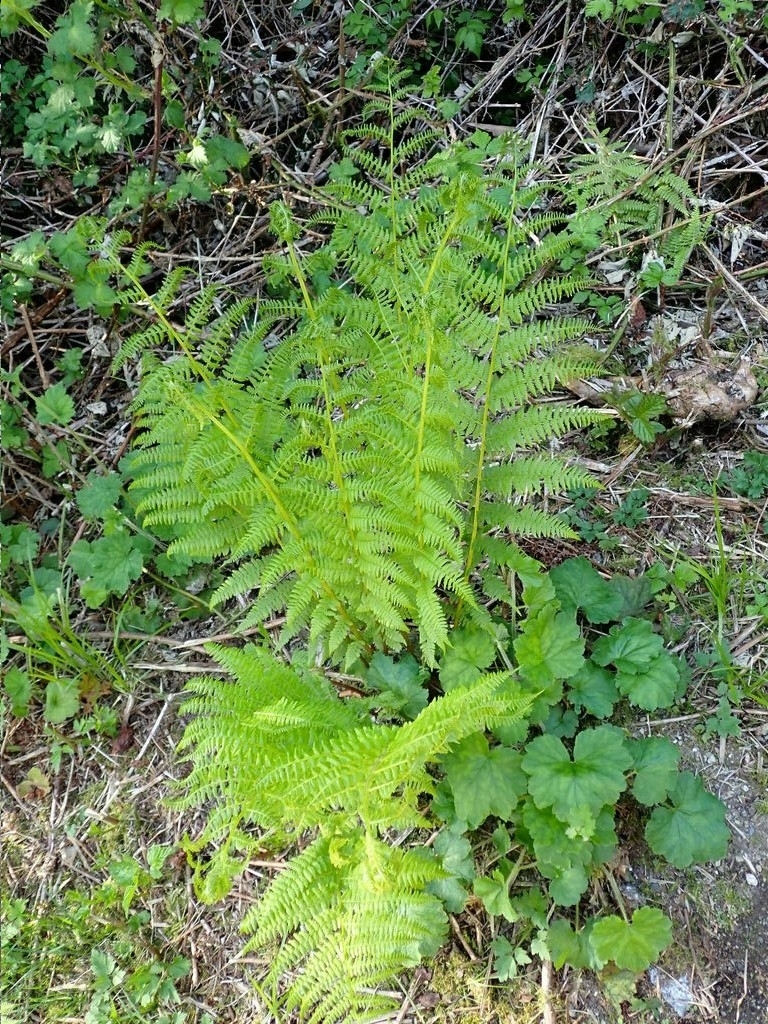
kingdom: Plantae
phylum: Tracheophyta
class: Polypodiopsida
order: Polypodiales
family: Athyriaceae
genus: Athyrium
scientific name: Athyrium cyclosorum
